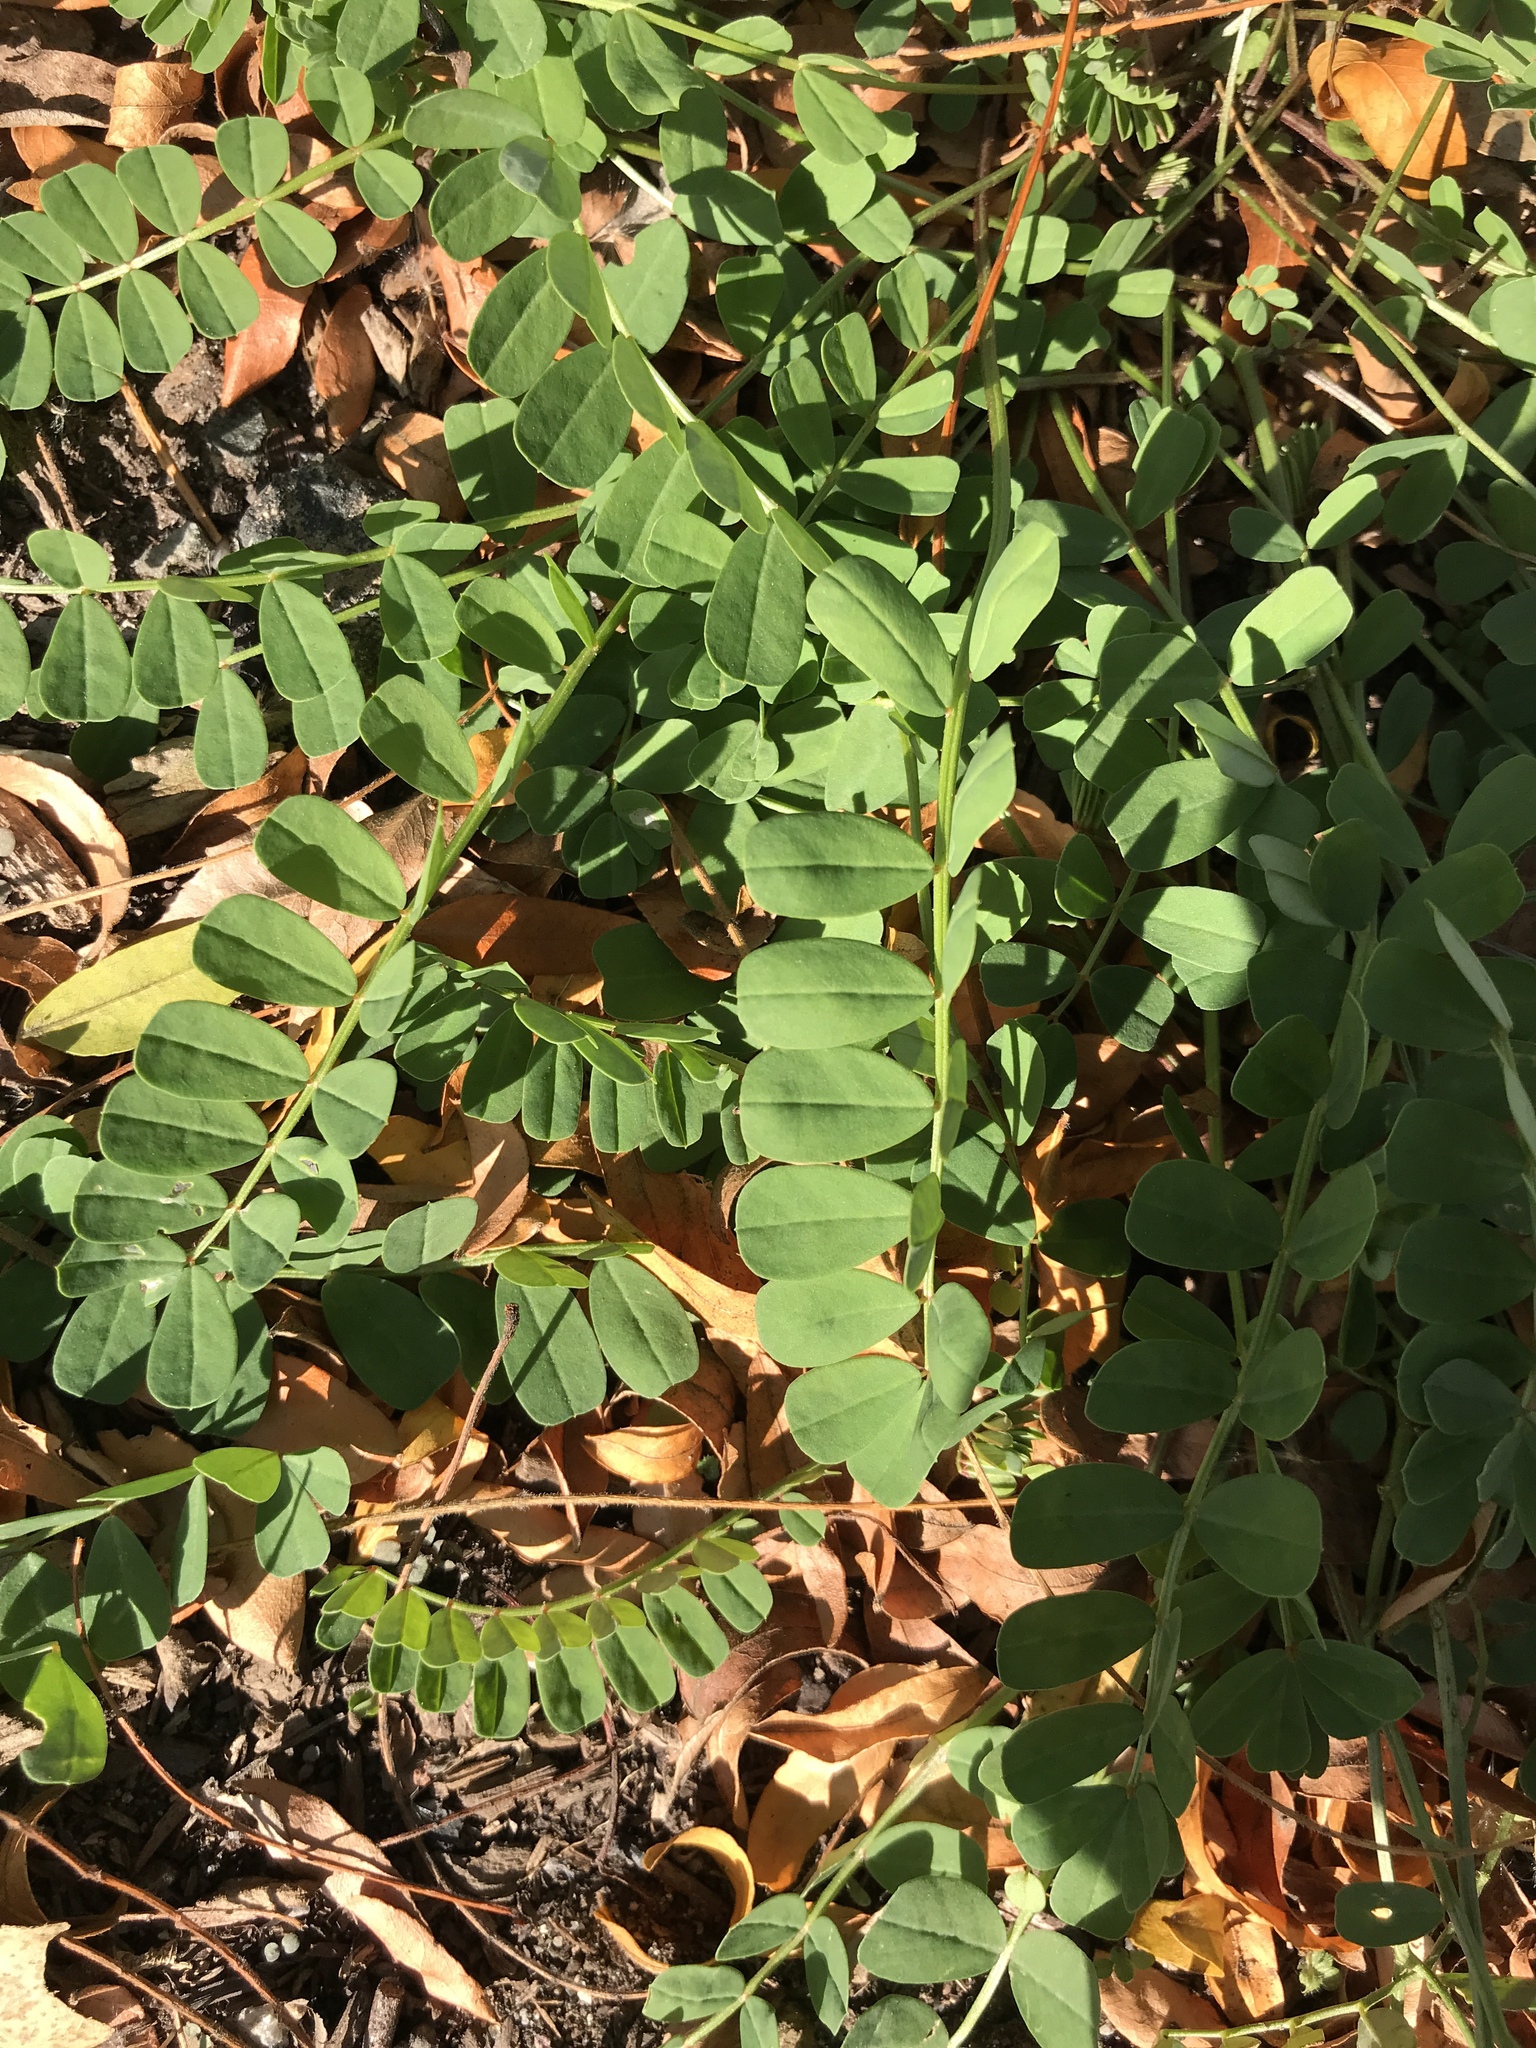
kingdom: Plantae
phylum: Tracheophyta
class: Magnoliopsida
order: Fabales
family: Fabaceae
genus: Coronilla
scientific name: Coronilla varia
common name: Crownvetch
